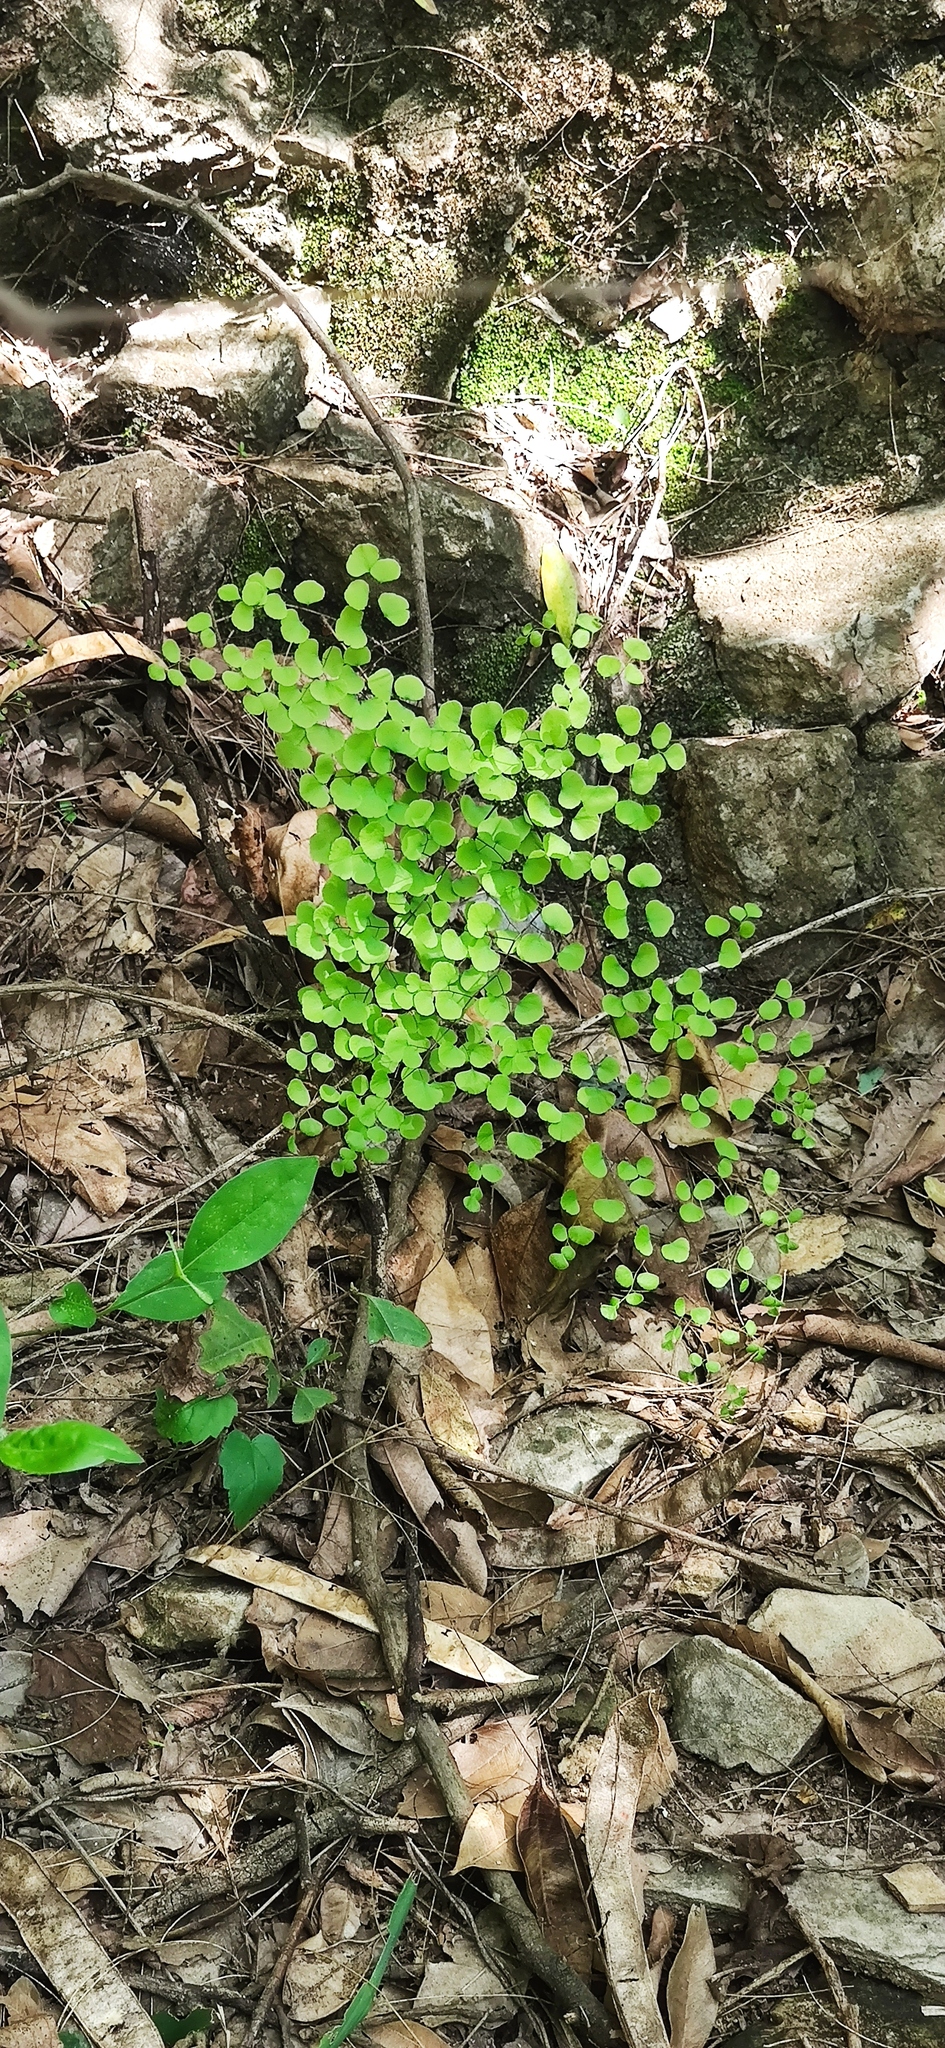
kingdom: Plantae
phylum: Tracheophyta
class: Polypodiopsida
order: Polypodiales
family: Pteridaceae
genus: Adiantum
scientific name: Adiantum tricholepis
